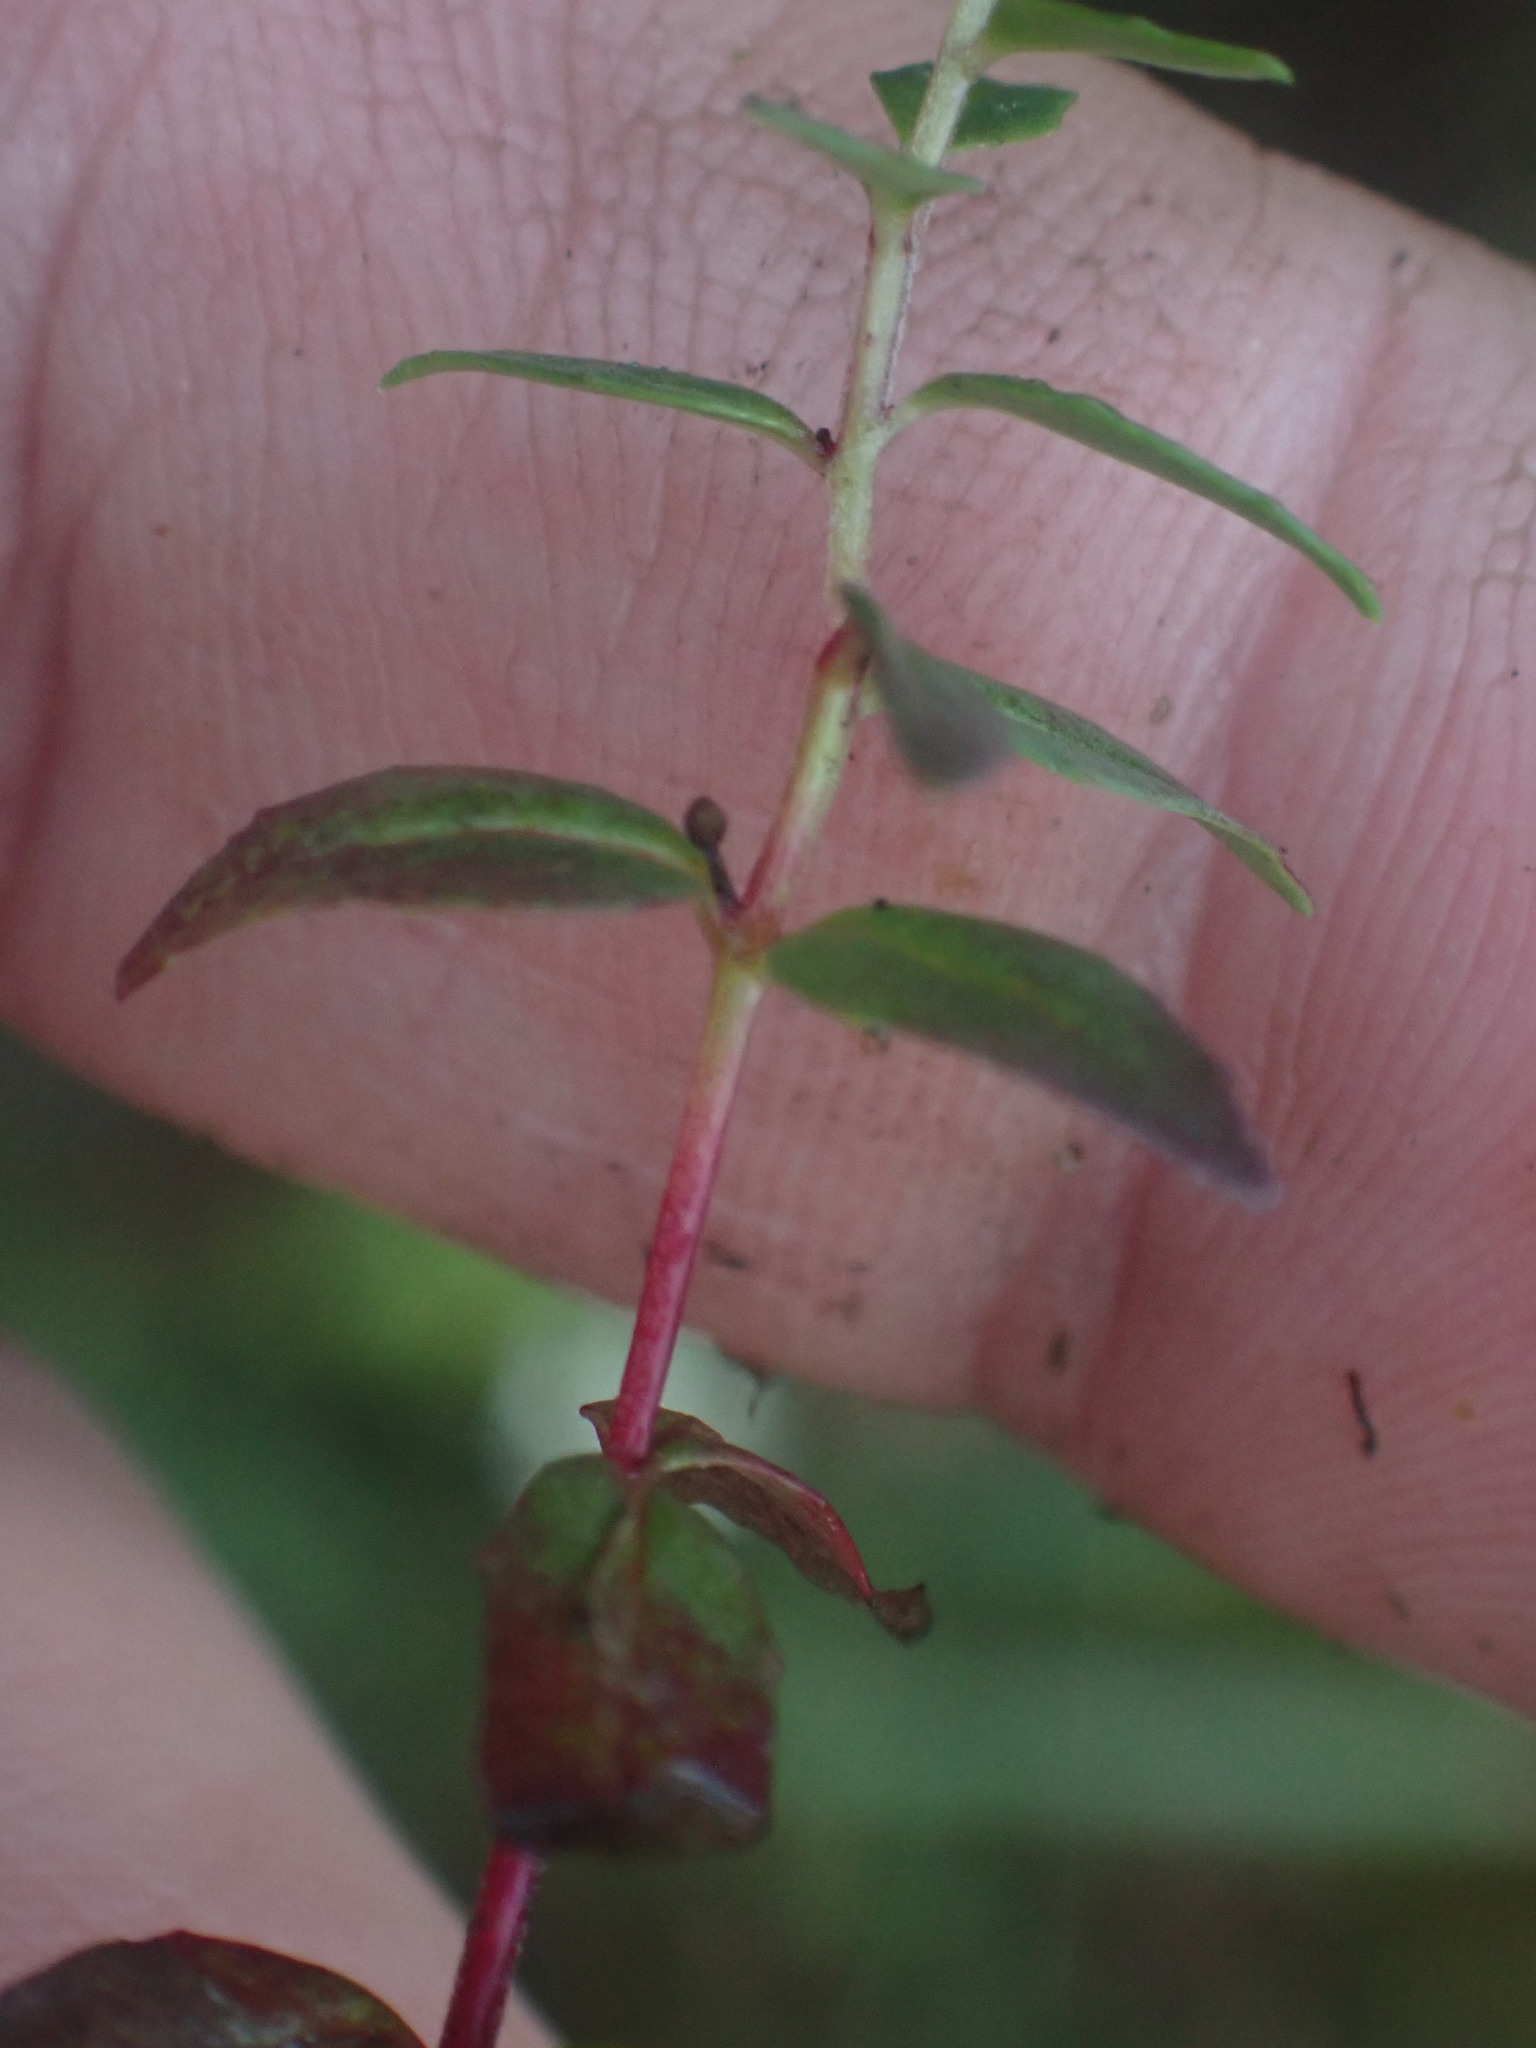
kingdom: Plantae
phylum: Tracheophyta
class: Magnoliopsida
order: Myrtales
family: Onagraceae
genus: Epilobium
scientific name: Epilobium anagallidifolium
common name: Alpine willowherb
